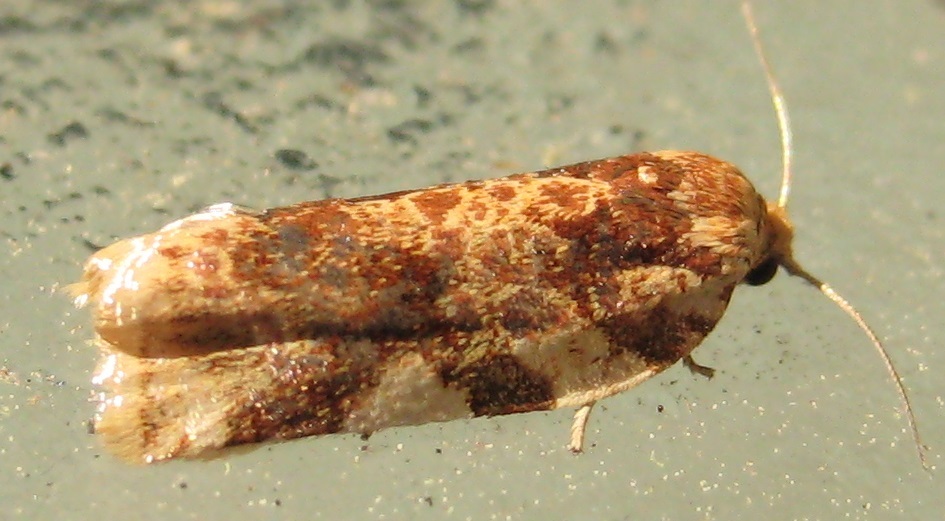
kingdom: Animalia
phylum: Arthropoda
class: Insecta
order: Lepidoptera
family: Tortricidae
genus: Archips
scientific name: Archips argyrospila
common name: Fruit-tree leafroller moth
